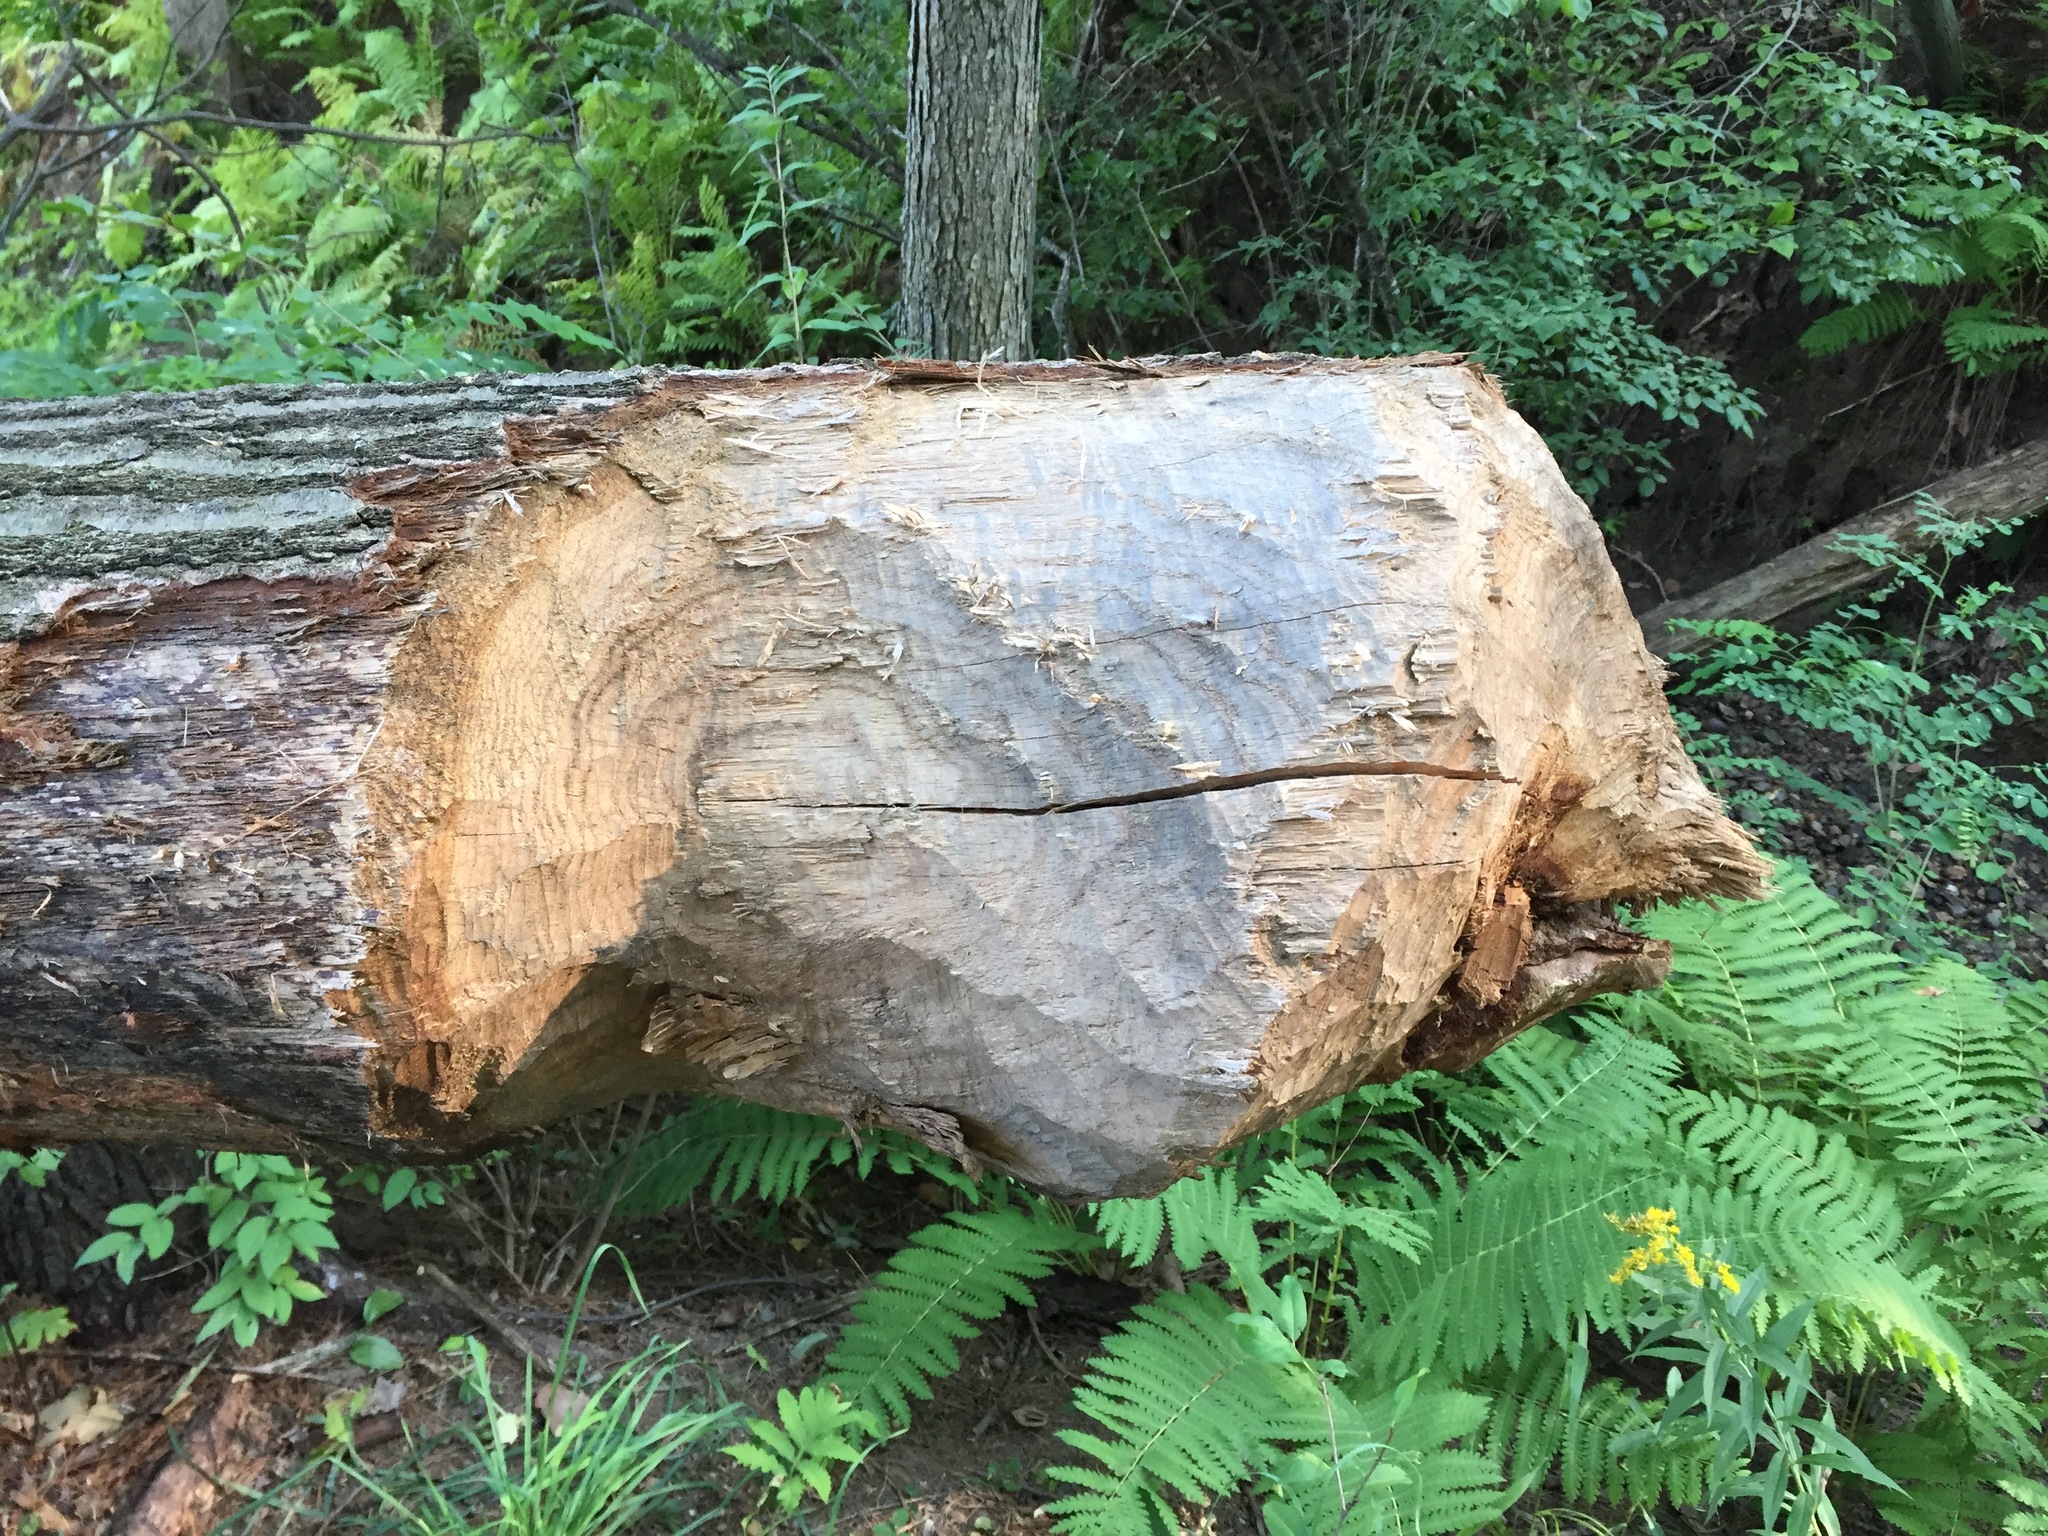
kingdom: Animalia
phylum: Chordata
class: Mammalia
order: Rodentia
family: Castoridae
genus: Castor
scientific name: Castor canadensis
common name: American beaver
